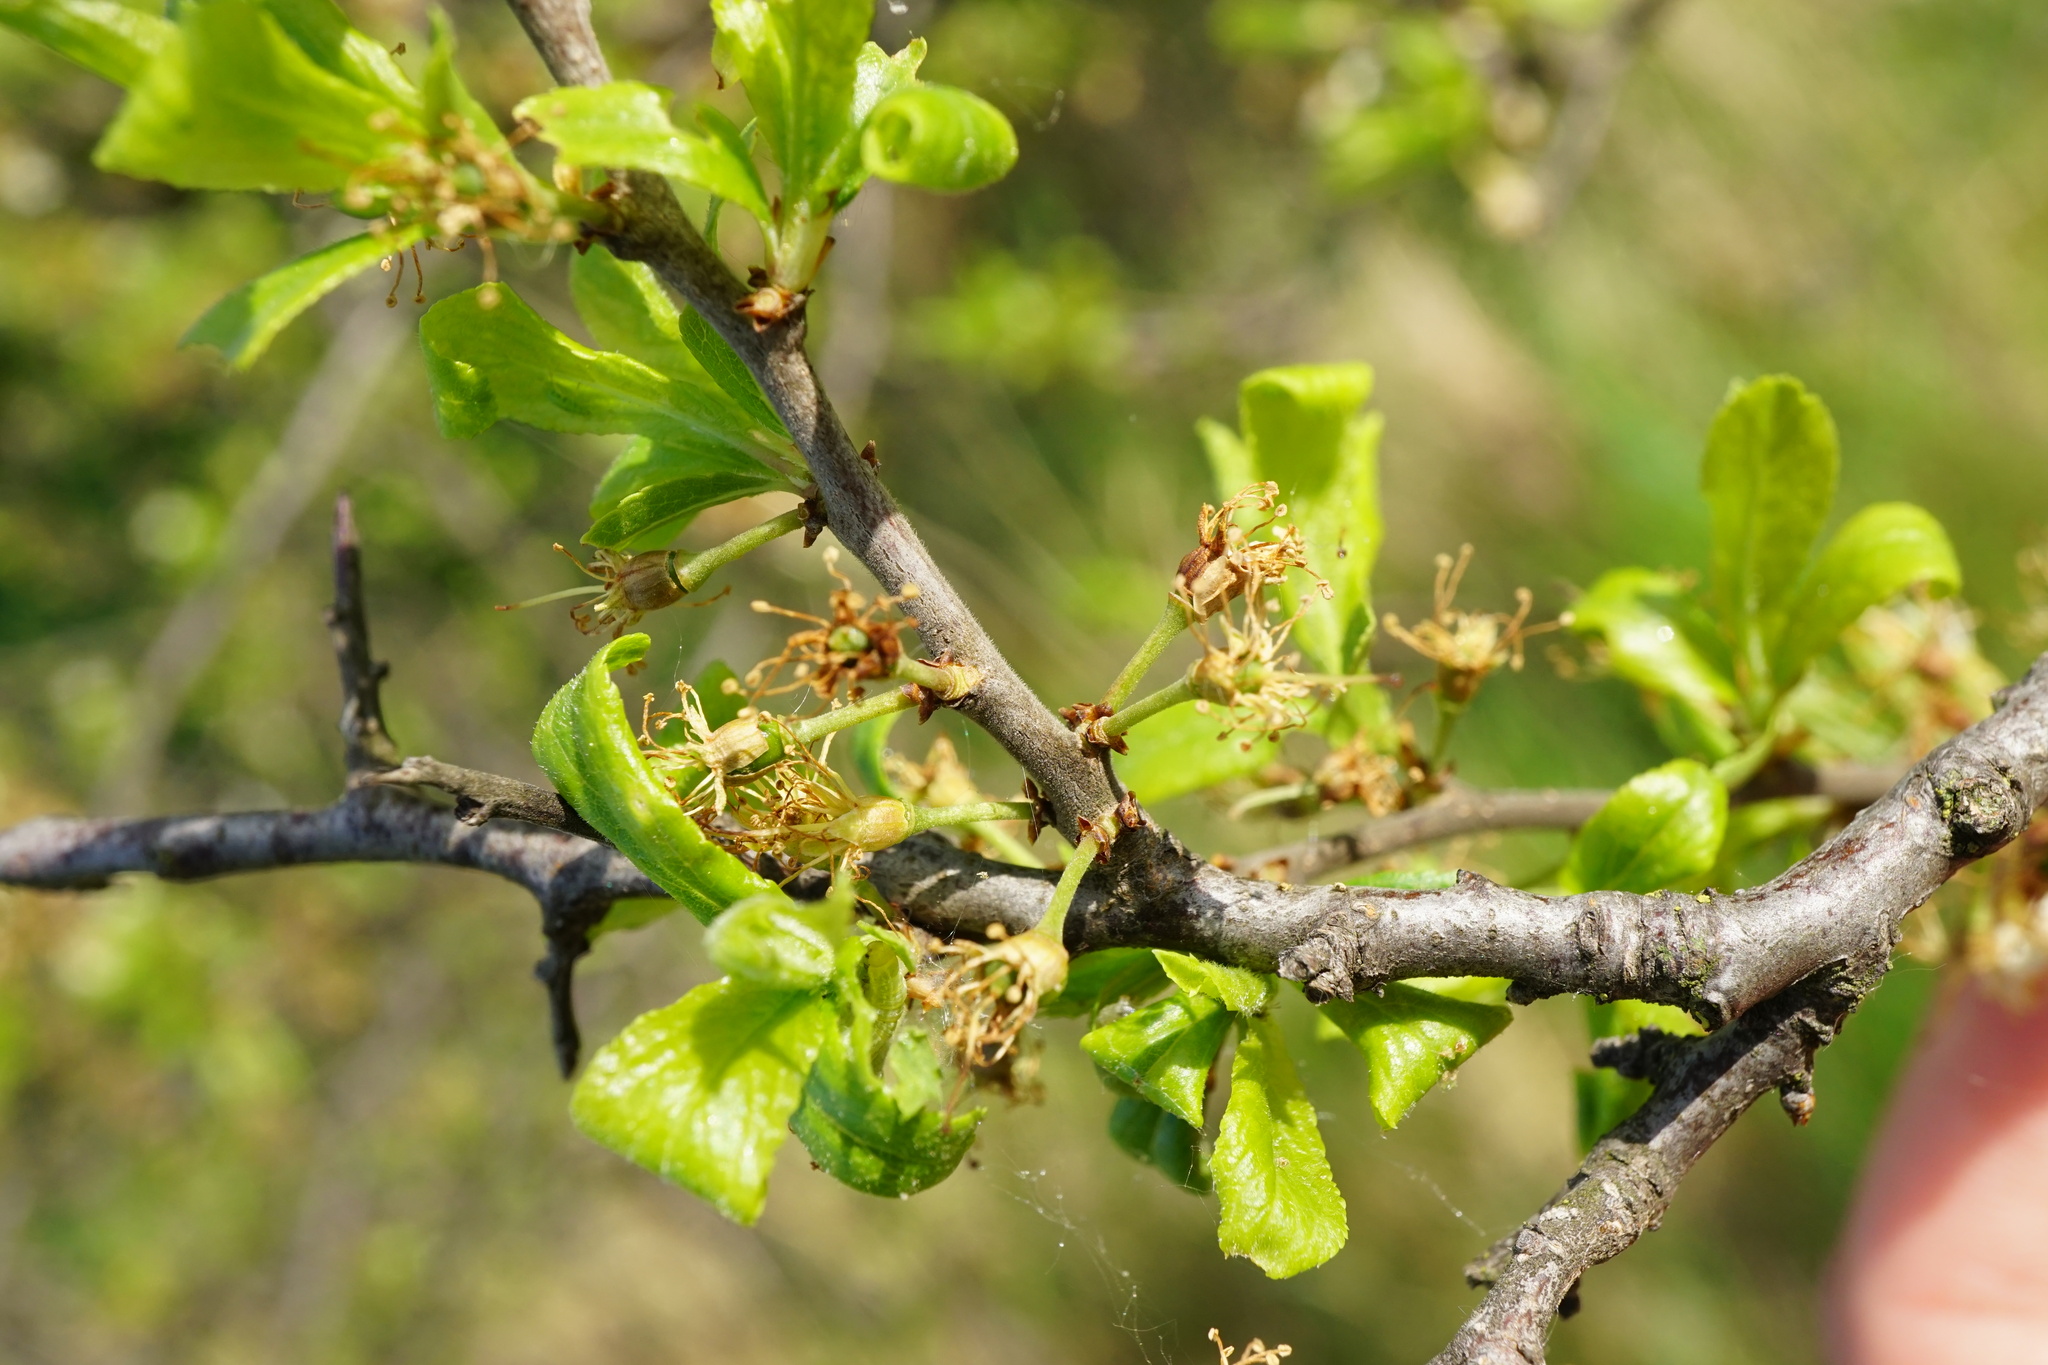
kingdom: Plantae
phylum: Tracheophyta
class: Magnoliopsida
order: Rosales
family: Rosaceae
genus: Prunus
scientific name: Prunus spinosa
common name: Blackthorn
